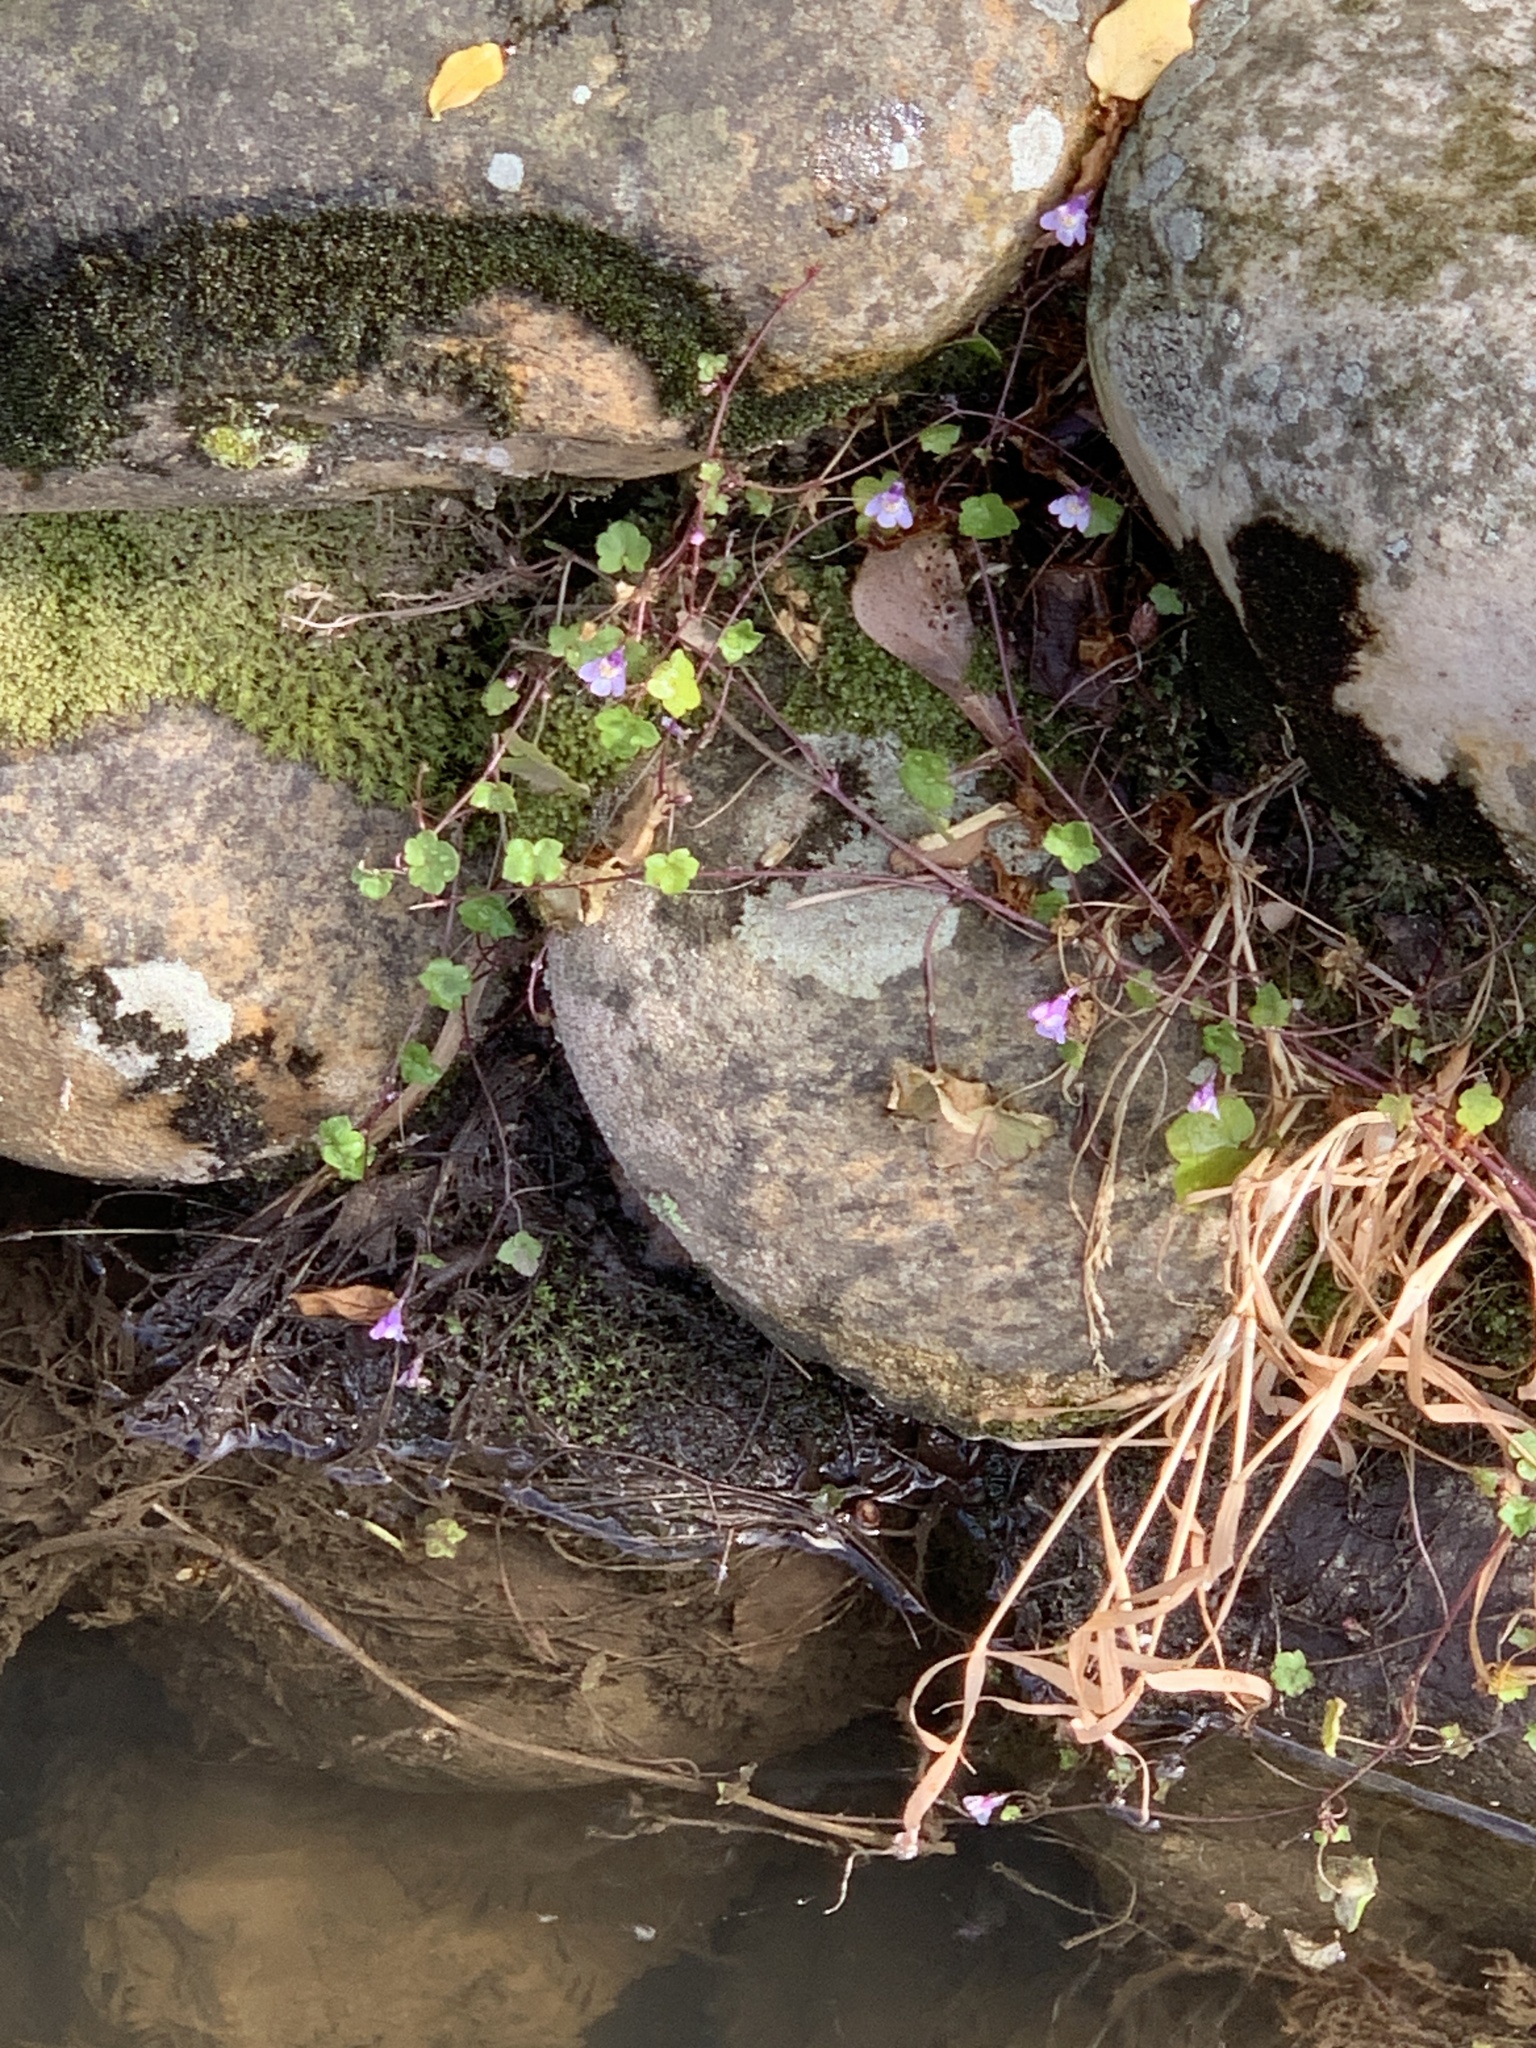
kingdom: Plantae
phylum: Tracheophyta
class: Magnoliopsida
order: Lamiales
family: Plantaginaceae
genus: Cymbalaria
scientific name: Cymbalaria muralis
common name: Ivy-leaved toadflax
